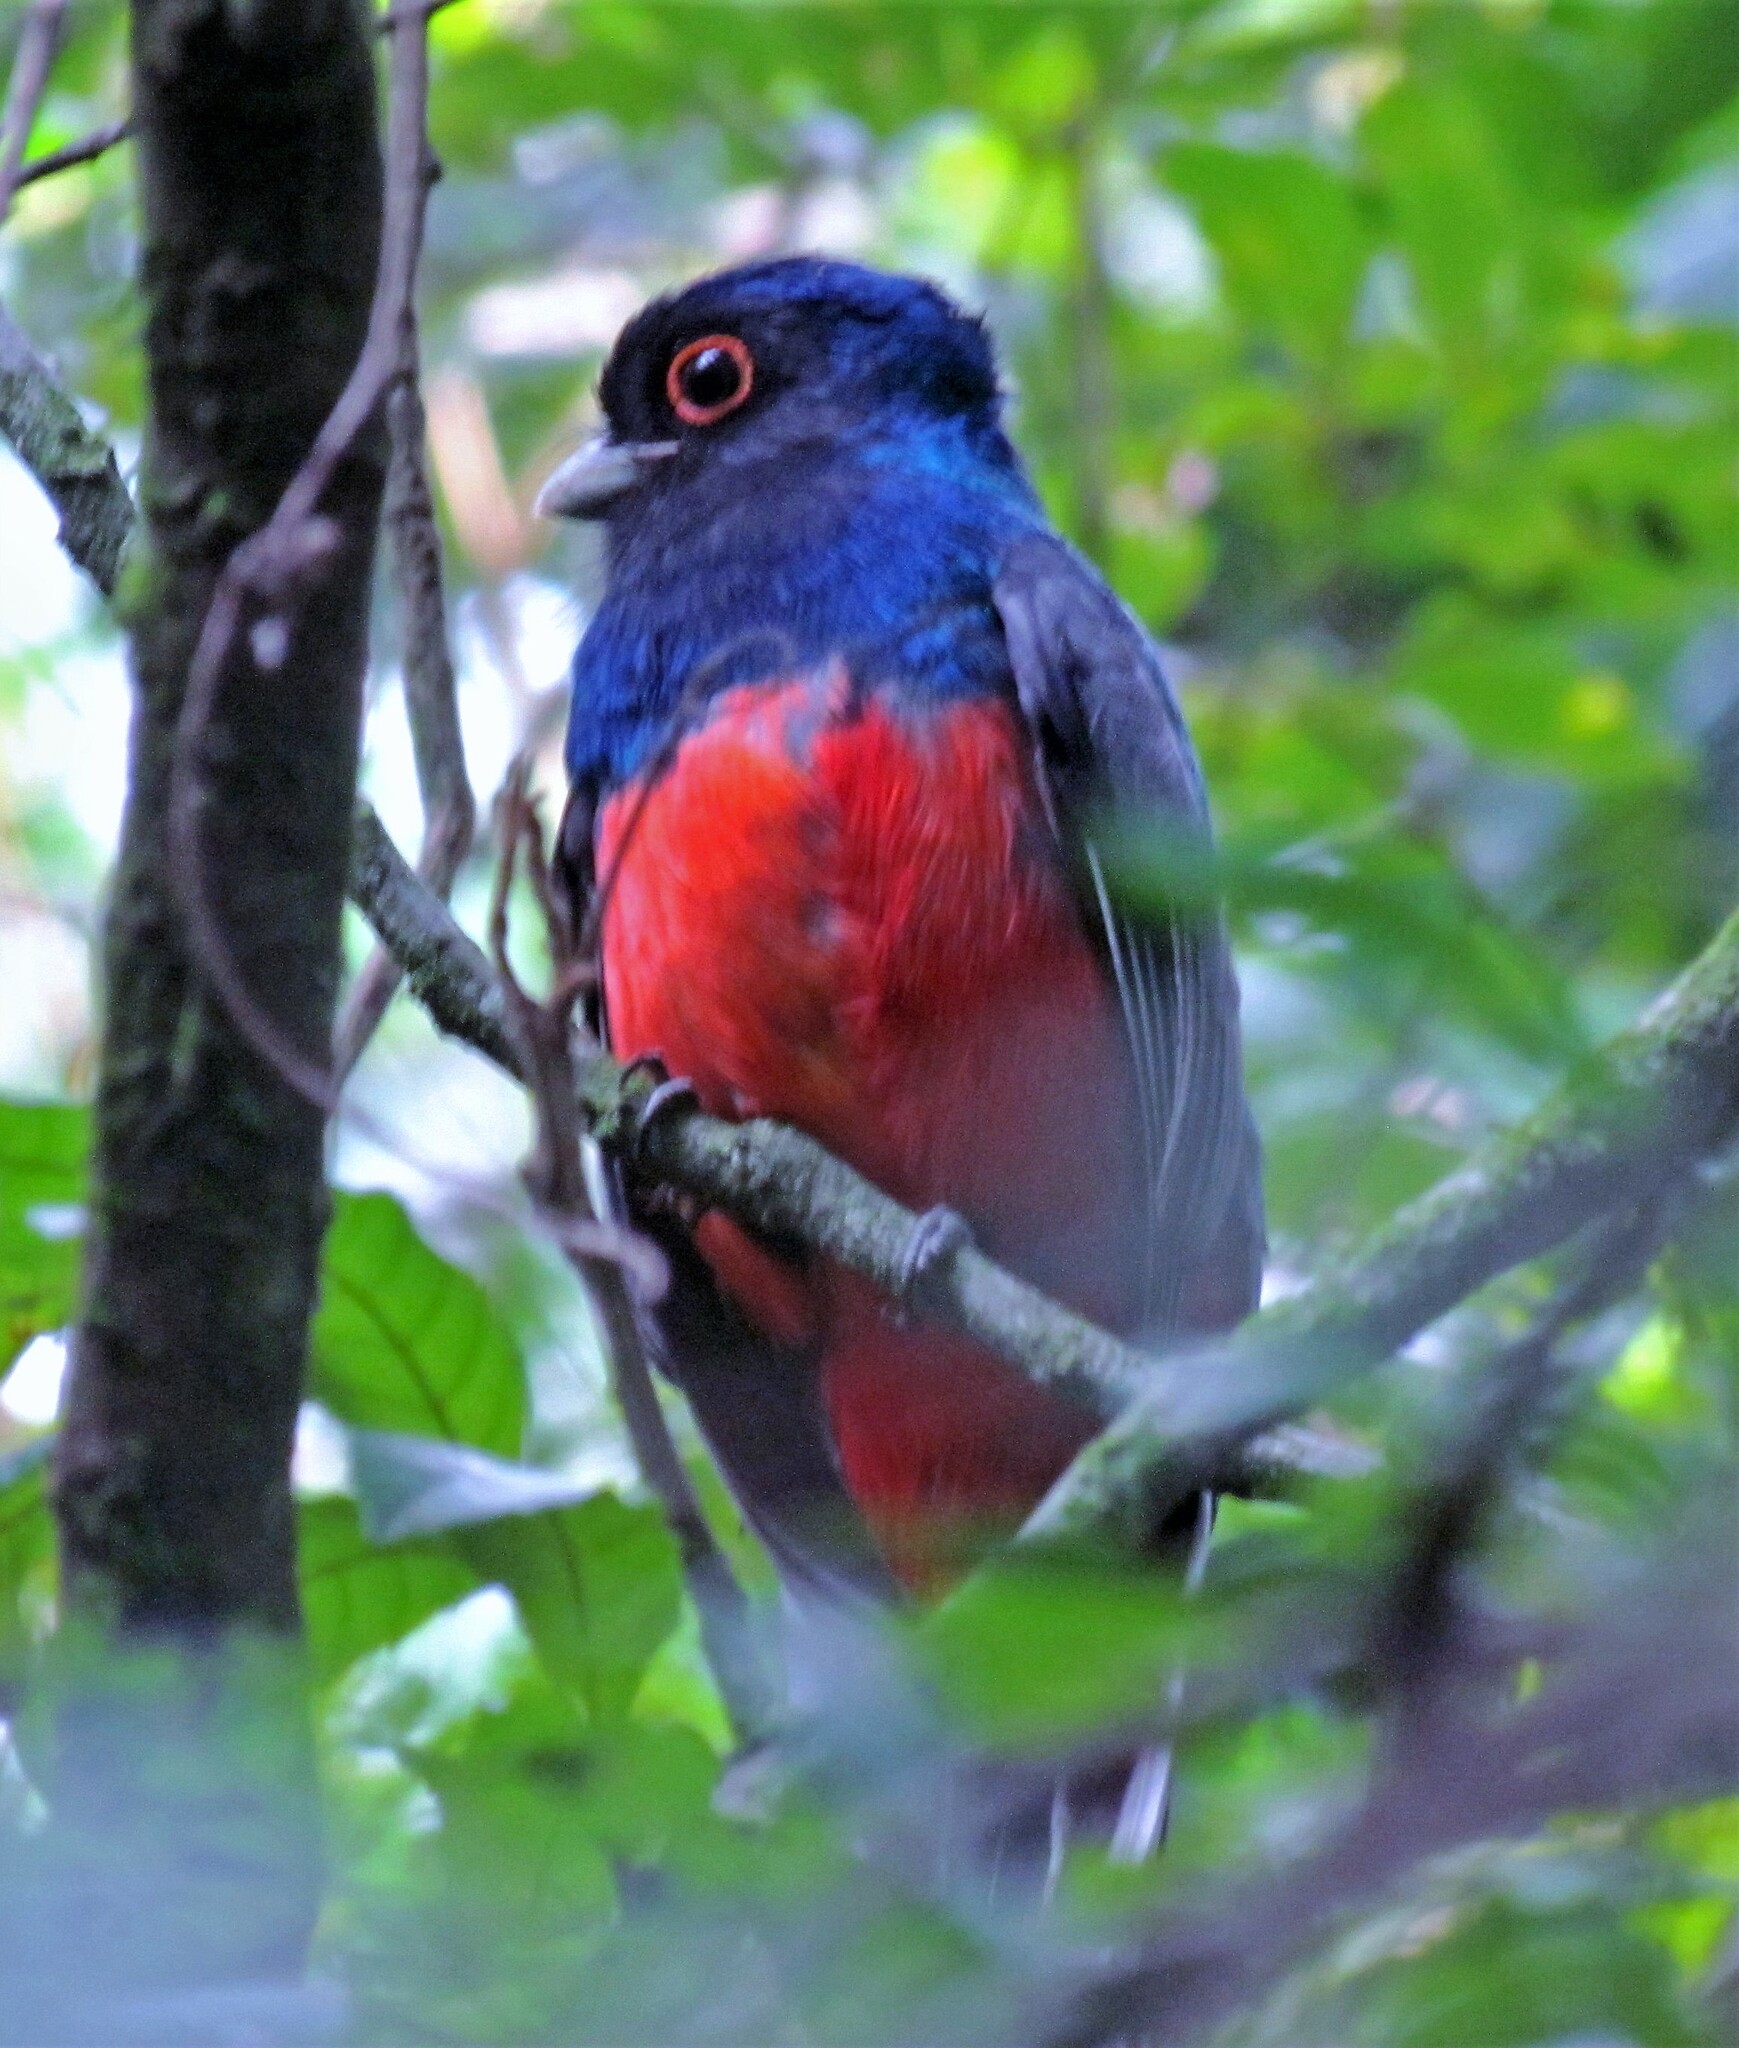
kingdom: Animalia
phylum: Chordata
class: Aves
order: Trogoniformes
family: Trogonidae
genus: Trogon
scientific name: Trogon surrucura
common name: Surucua trogon
